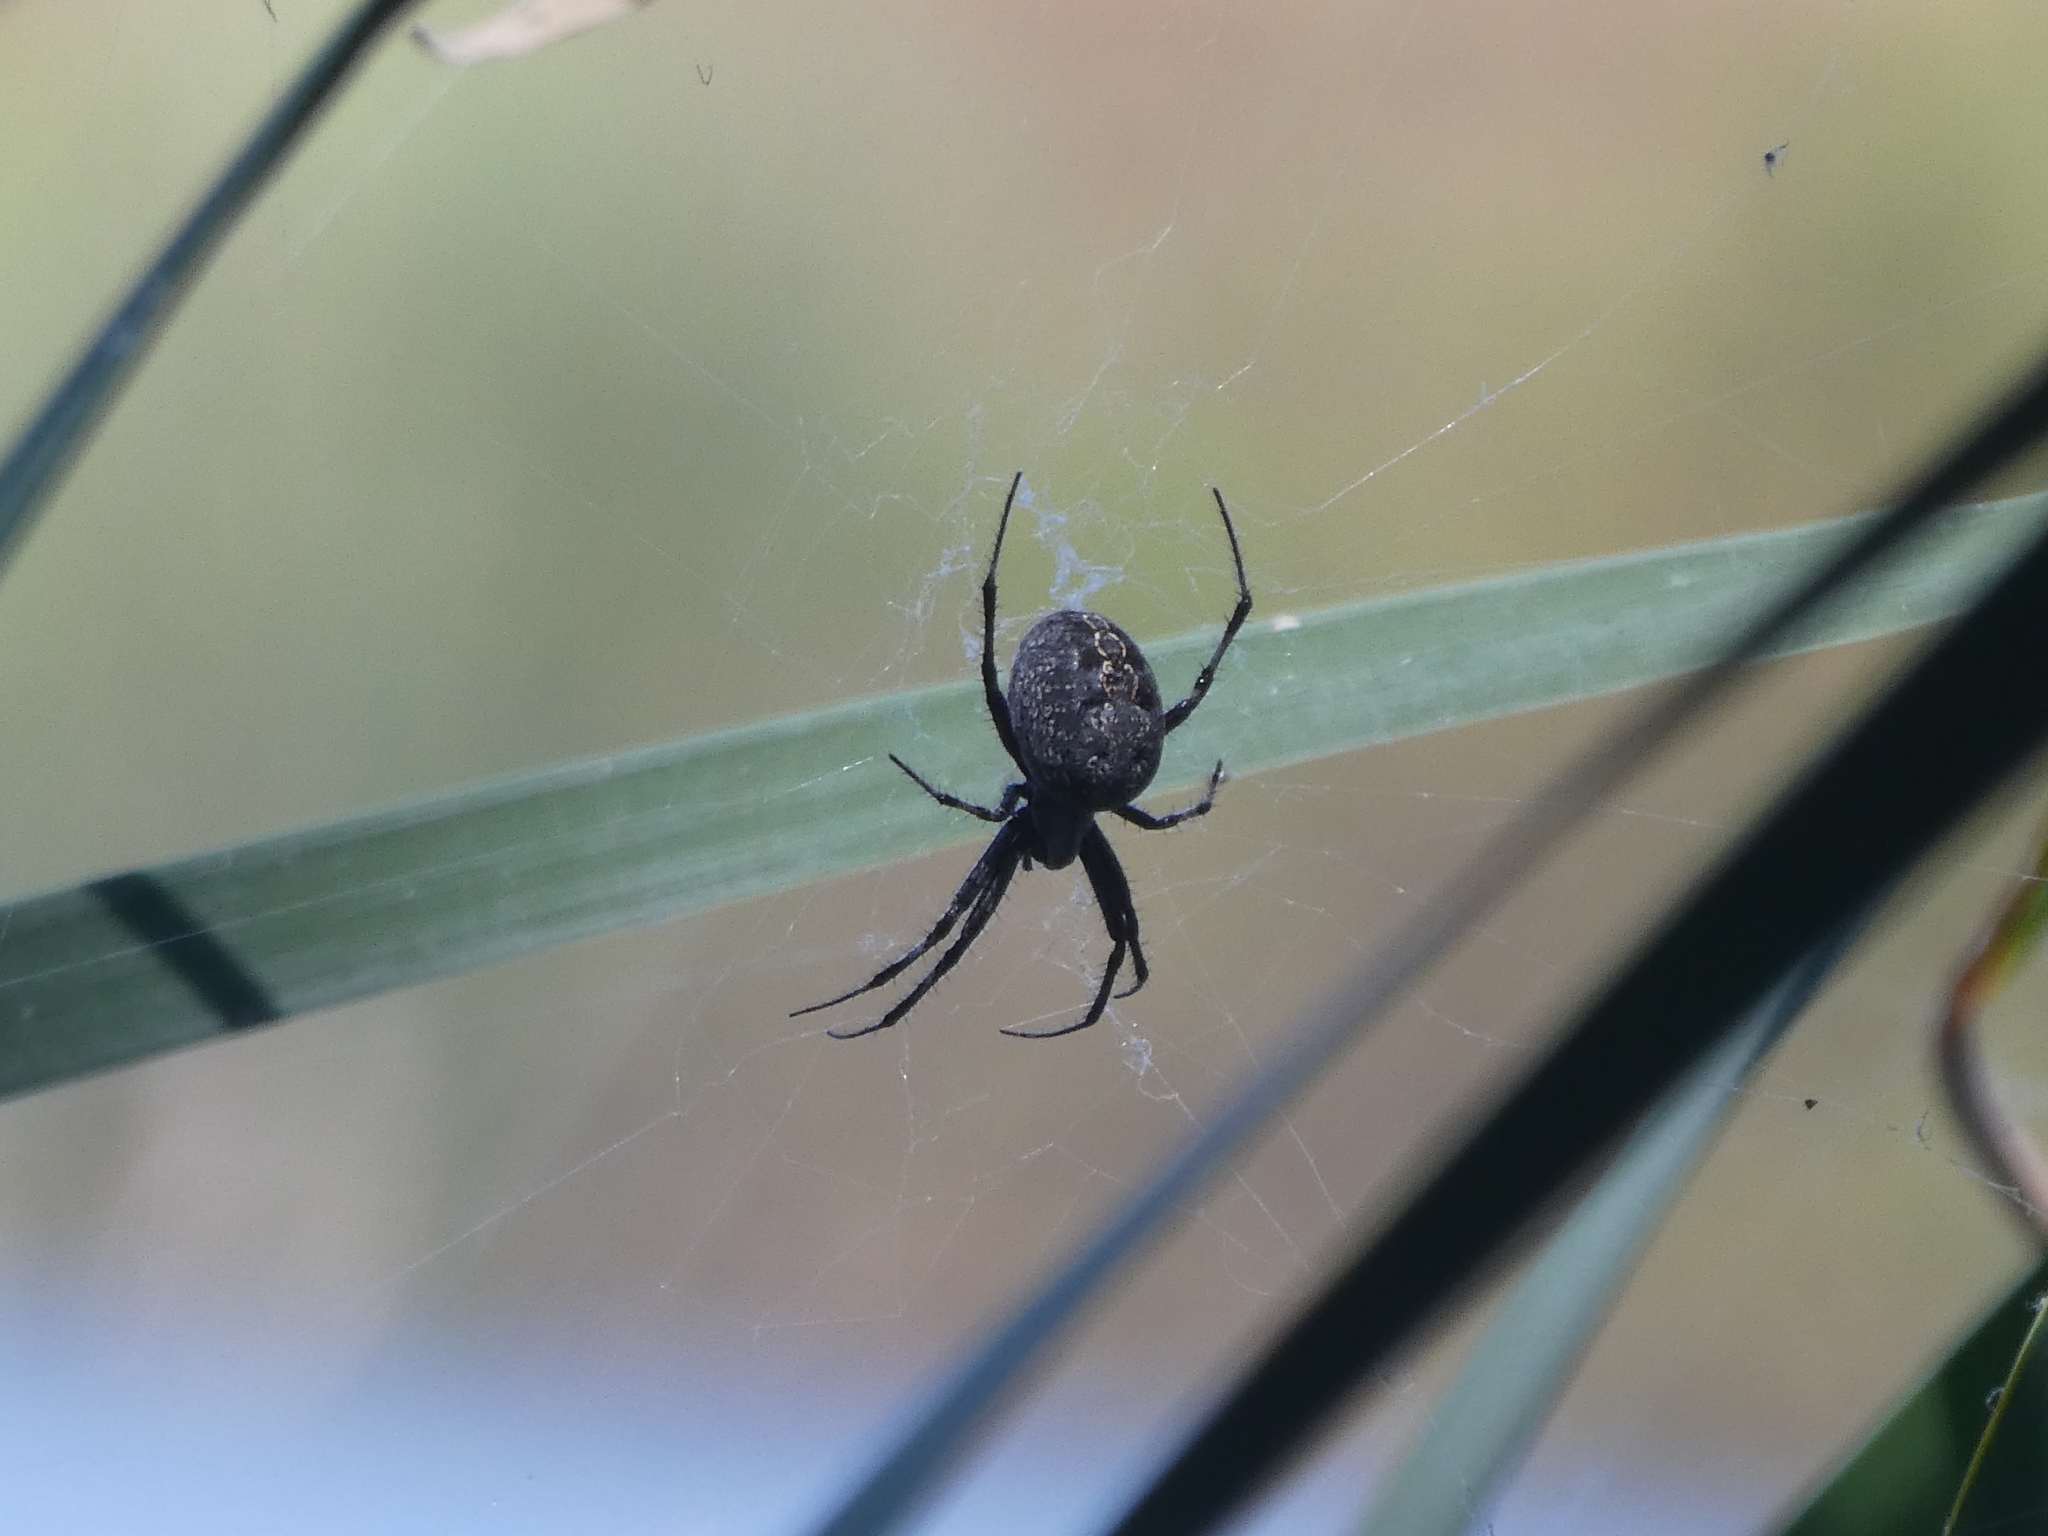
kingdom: Animalia
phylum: Arthropoda
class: Arachnida
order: Araneae
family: Araneidae
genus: Neoscona
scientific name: Neoscona oaxacensis
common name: Orb weavers
